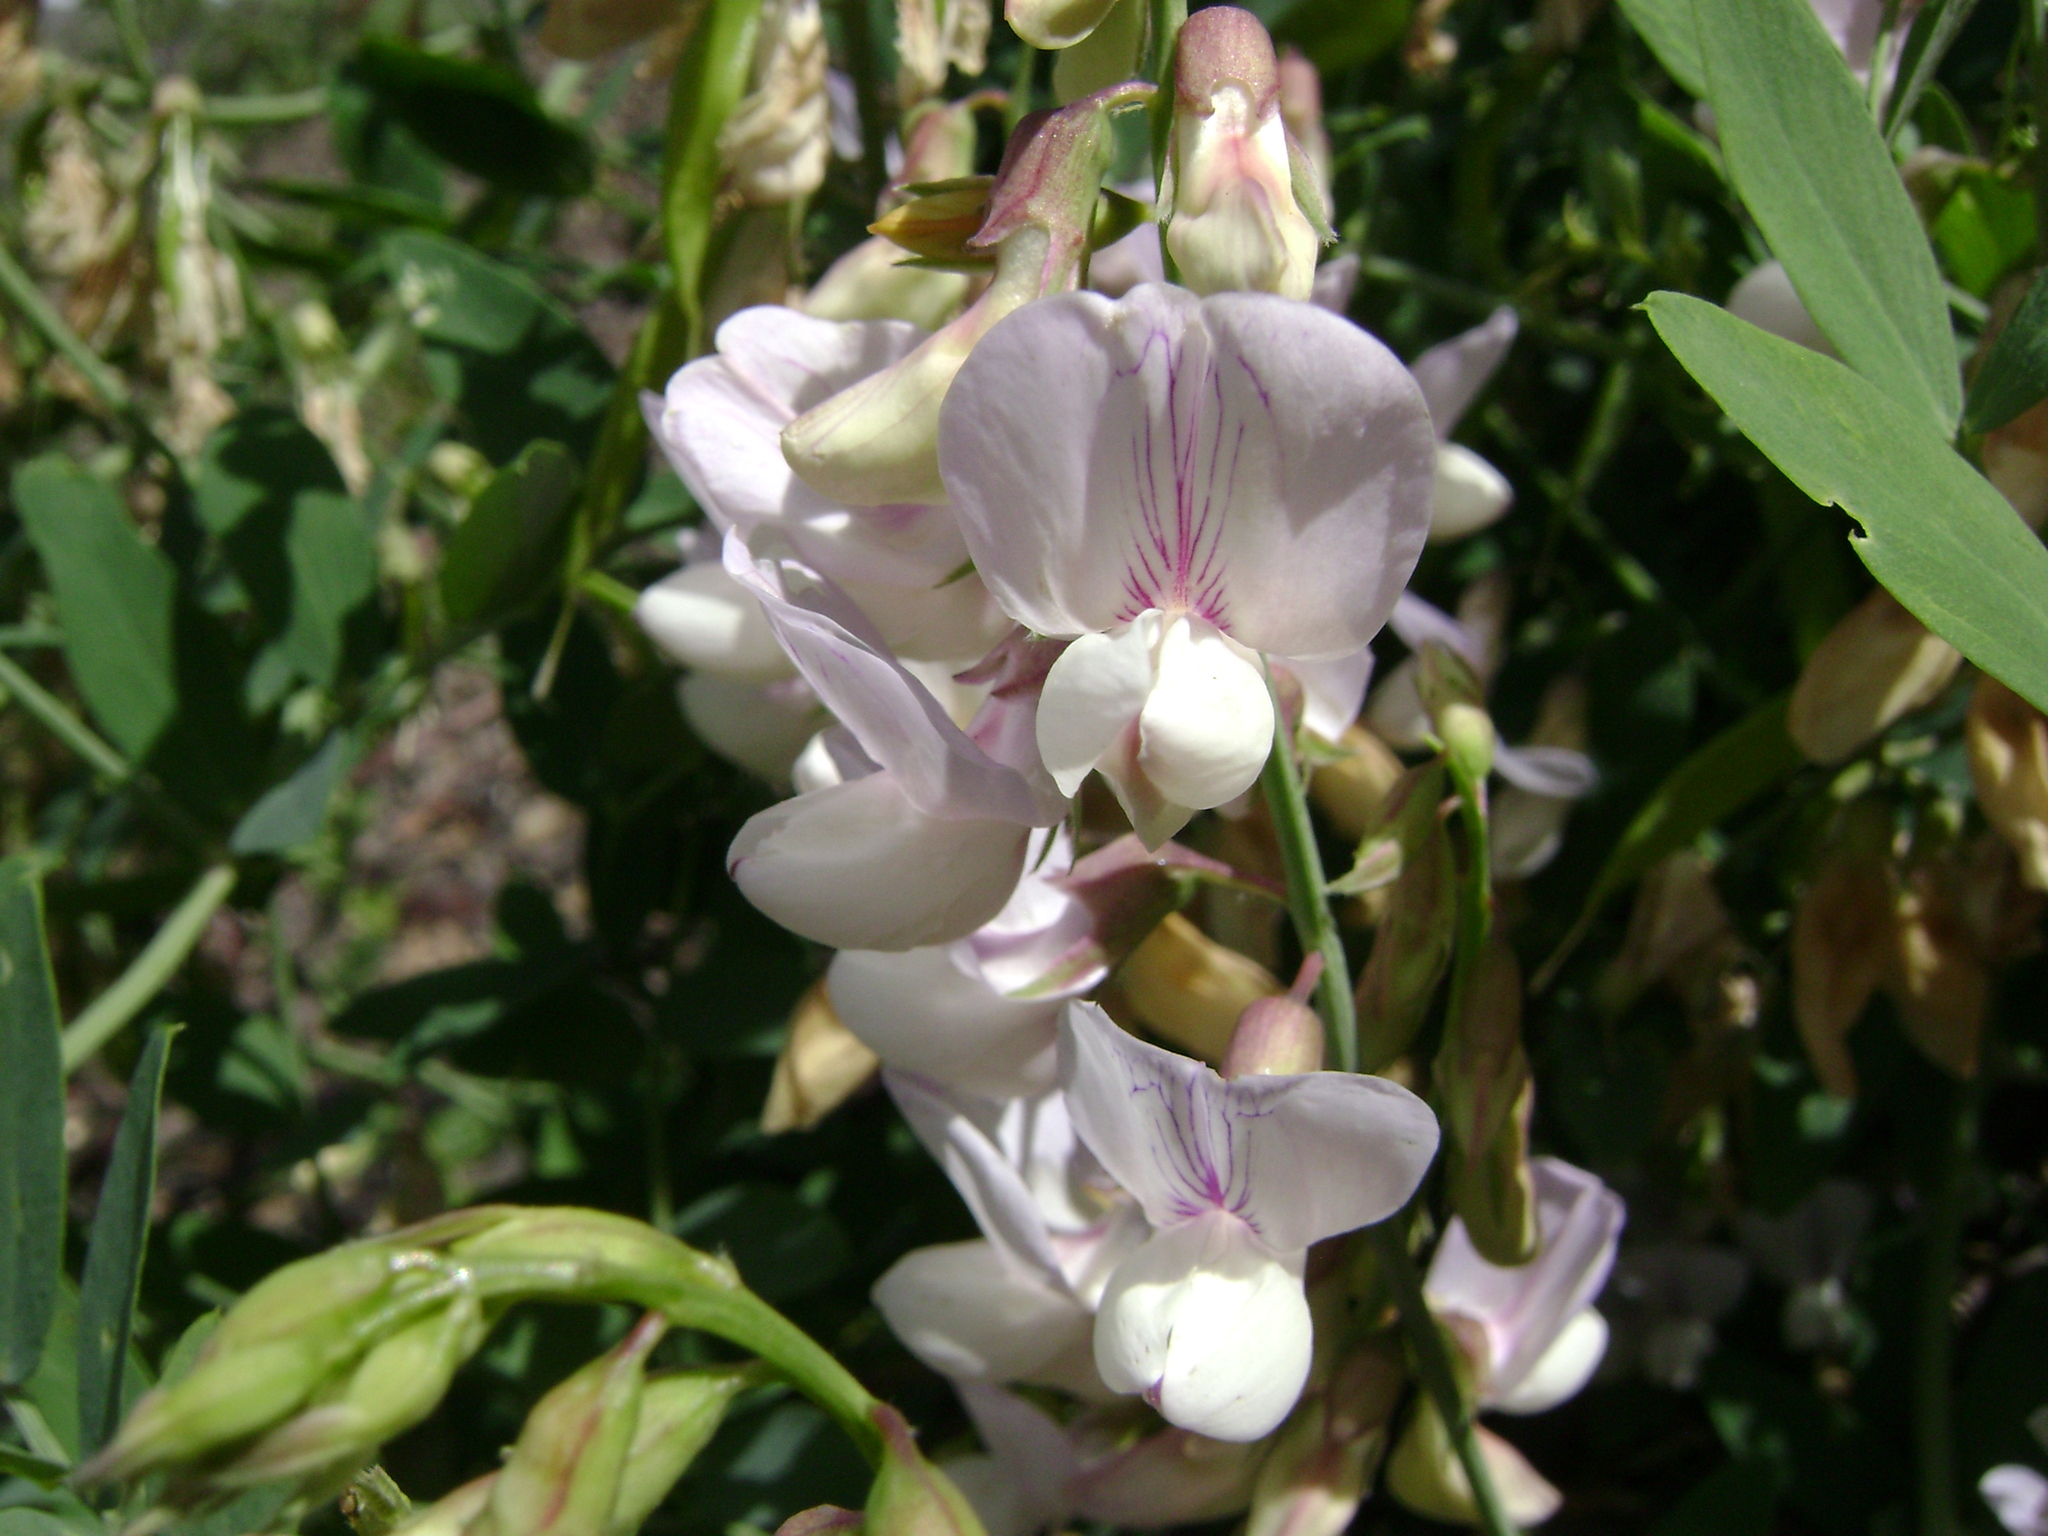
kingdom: Plantae
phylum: Tracheophyta
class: Magnoliopsida
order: Fabales
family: Fabaceae
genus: Lathyrus
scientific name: Lathyrus vestitus
